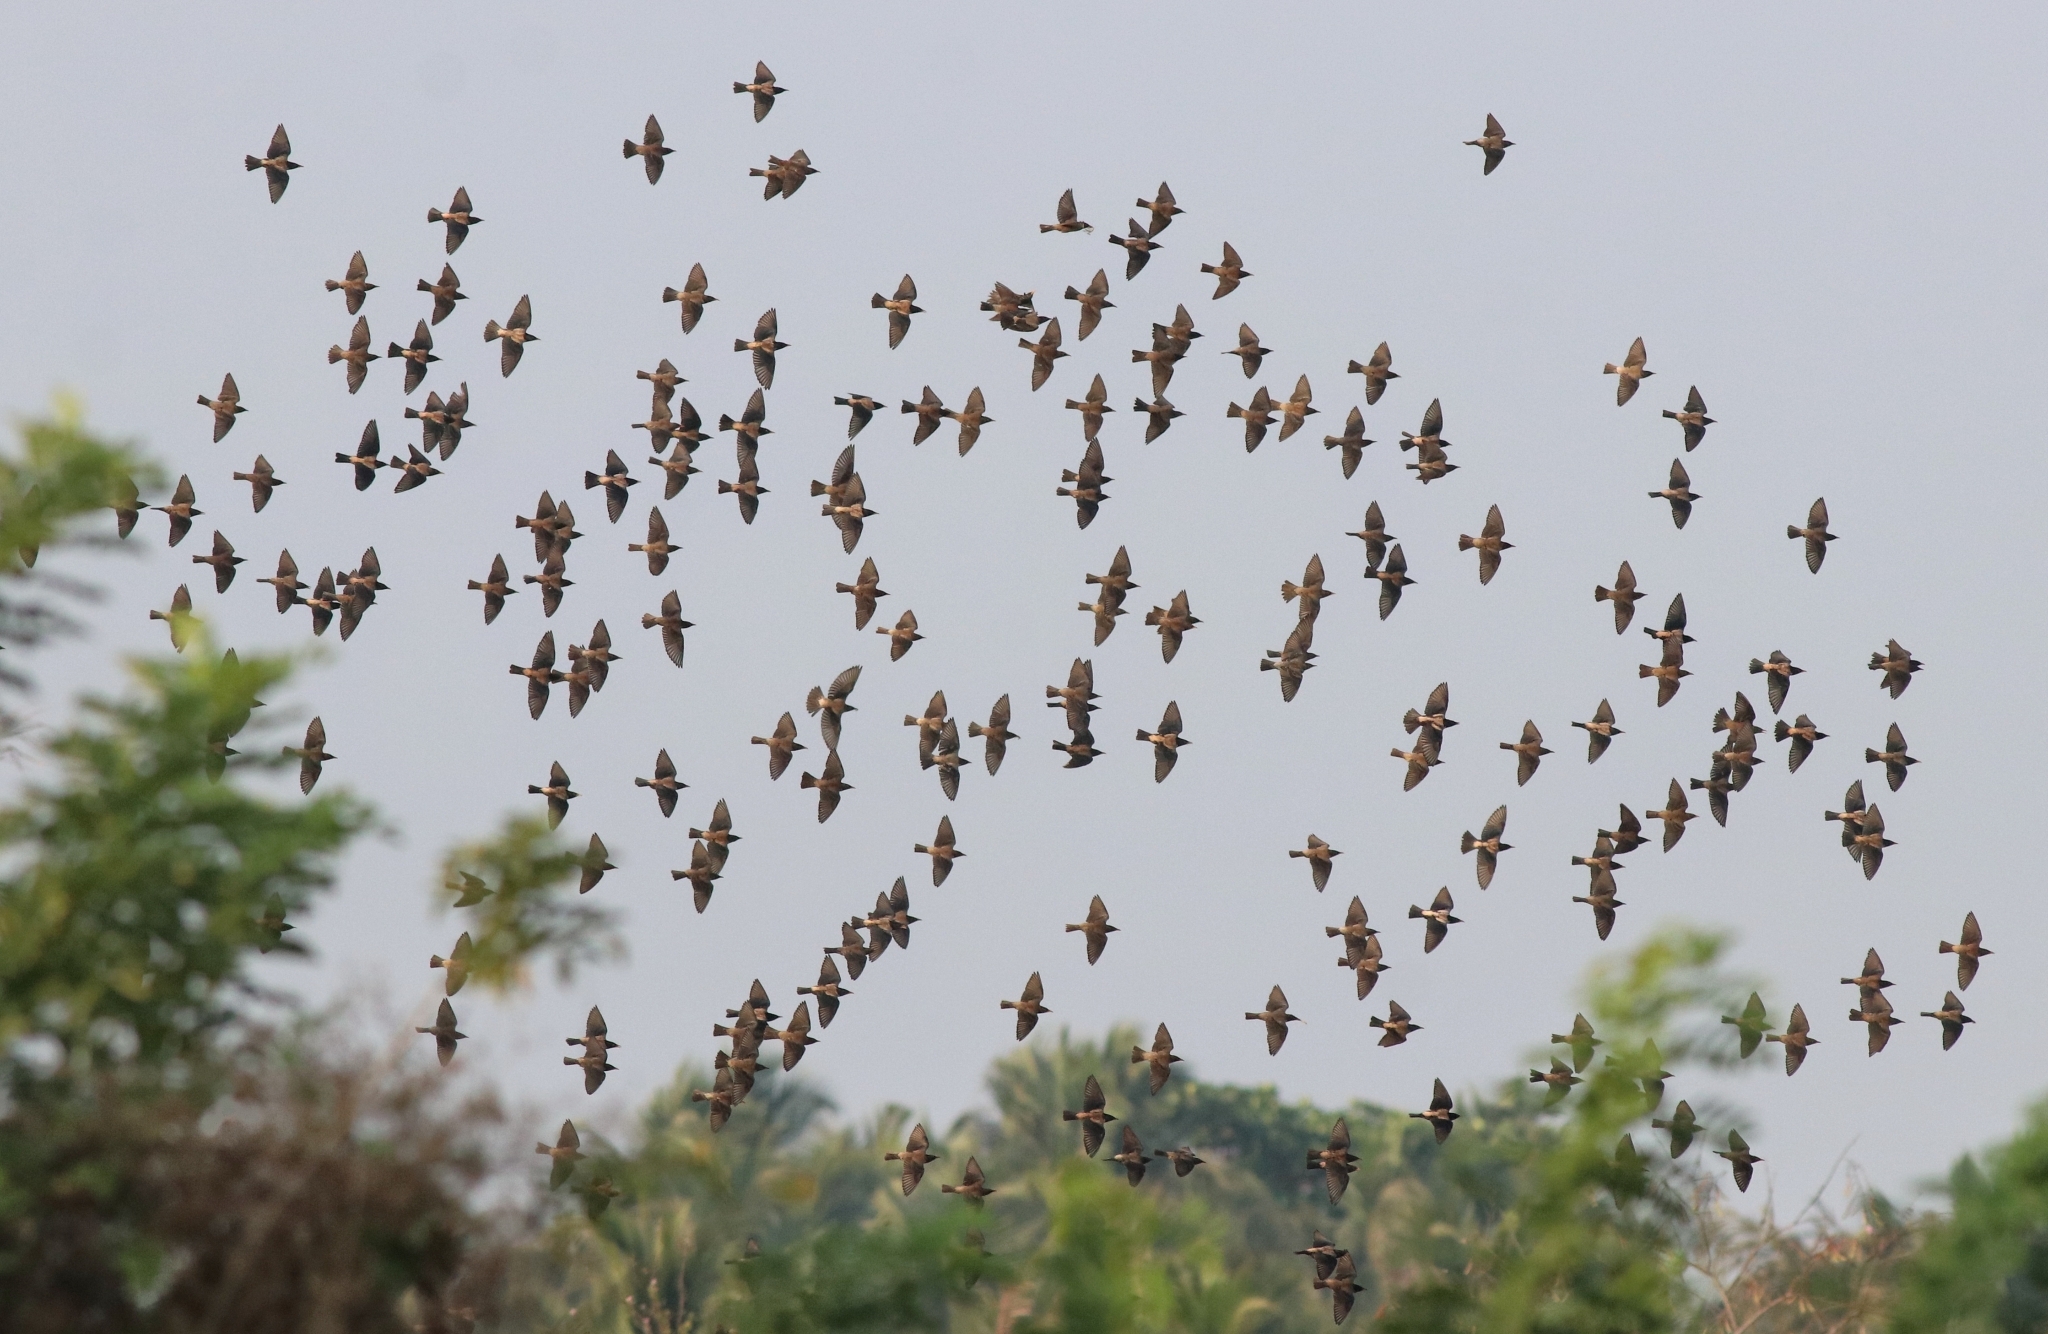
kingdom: Animalia
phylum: Chordata
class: Aves
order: Passeriformes
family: Sturnidae
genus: Pastor
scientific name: Pastor roseus
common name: Rosy starling
